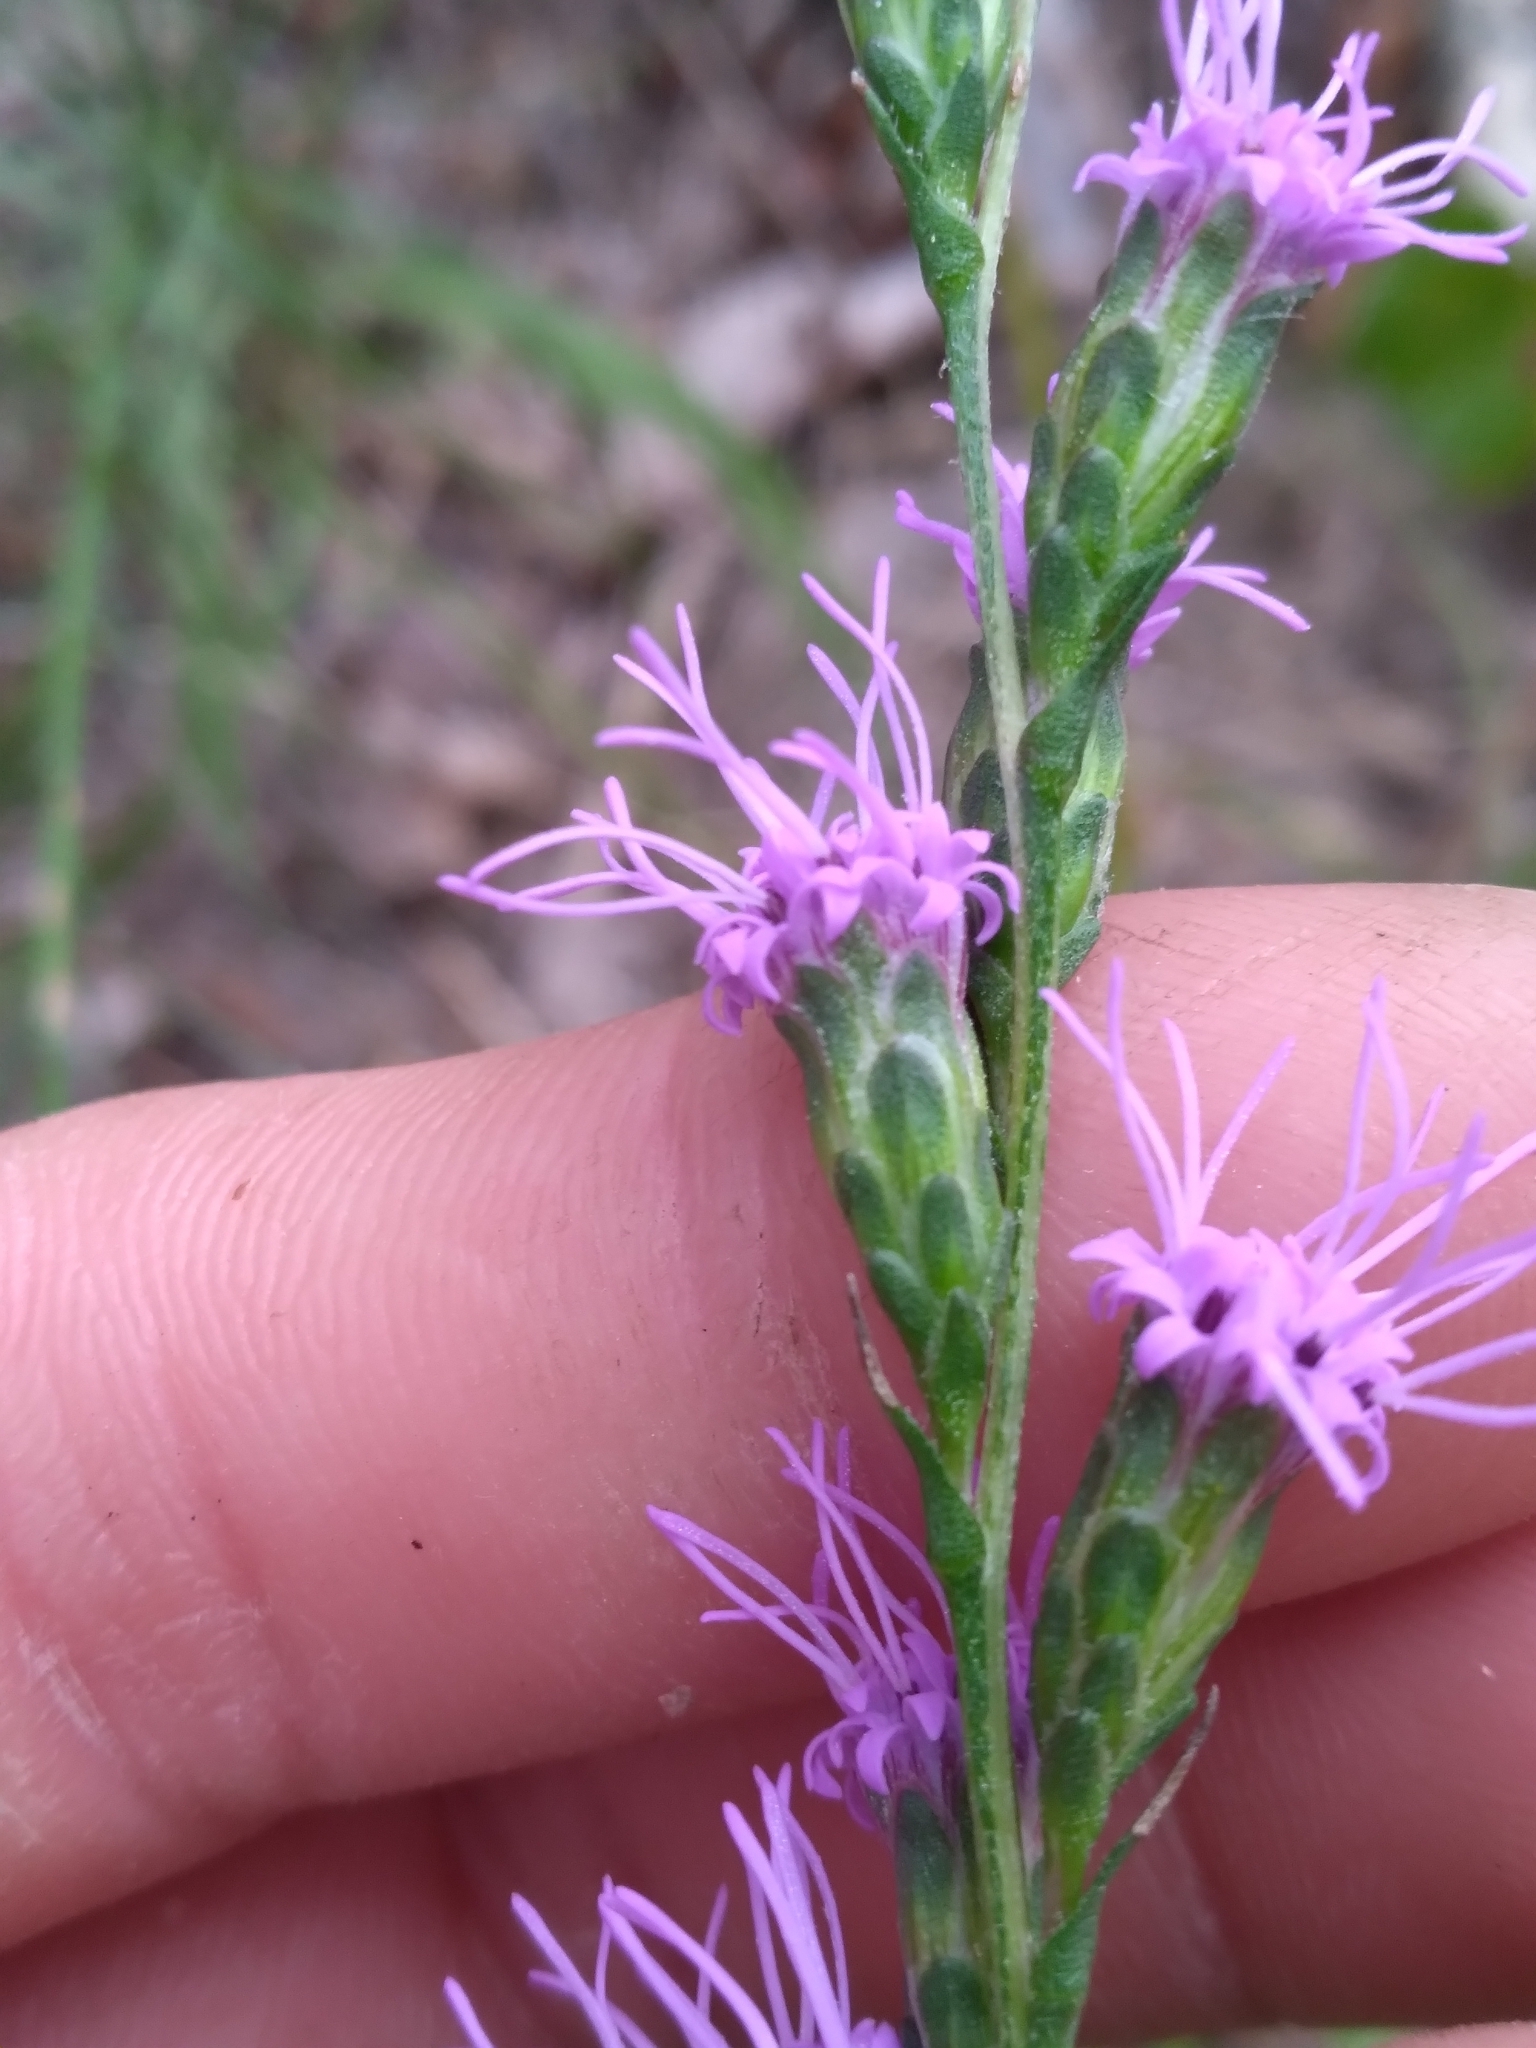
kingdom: Plantae
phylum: Tracheophyta
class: Magnoliopsida
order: Asterales
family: Asteraceae
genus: Liatris
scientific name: Liatris pilosa
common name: Grass-leaf gayfeather
